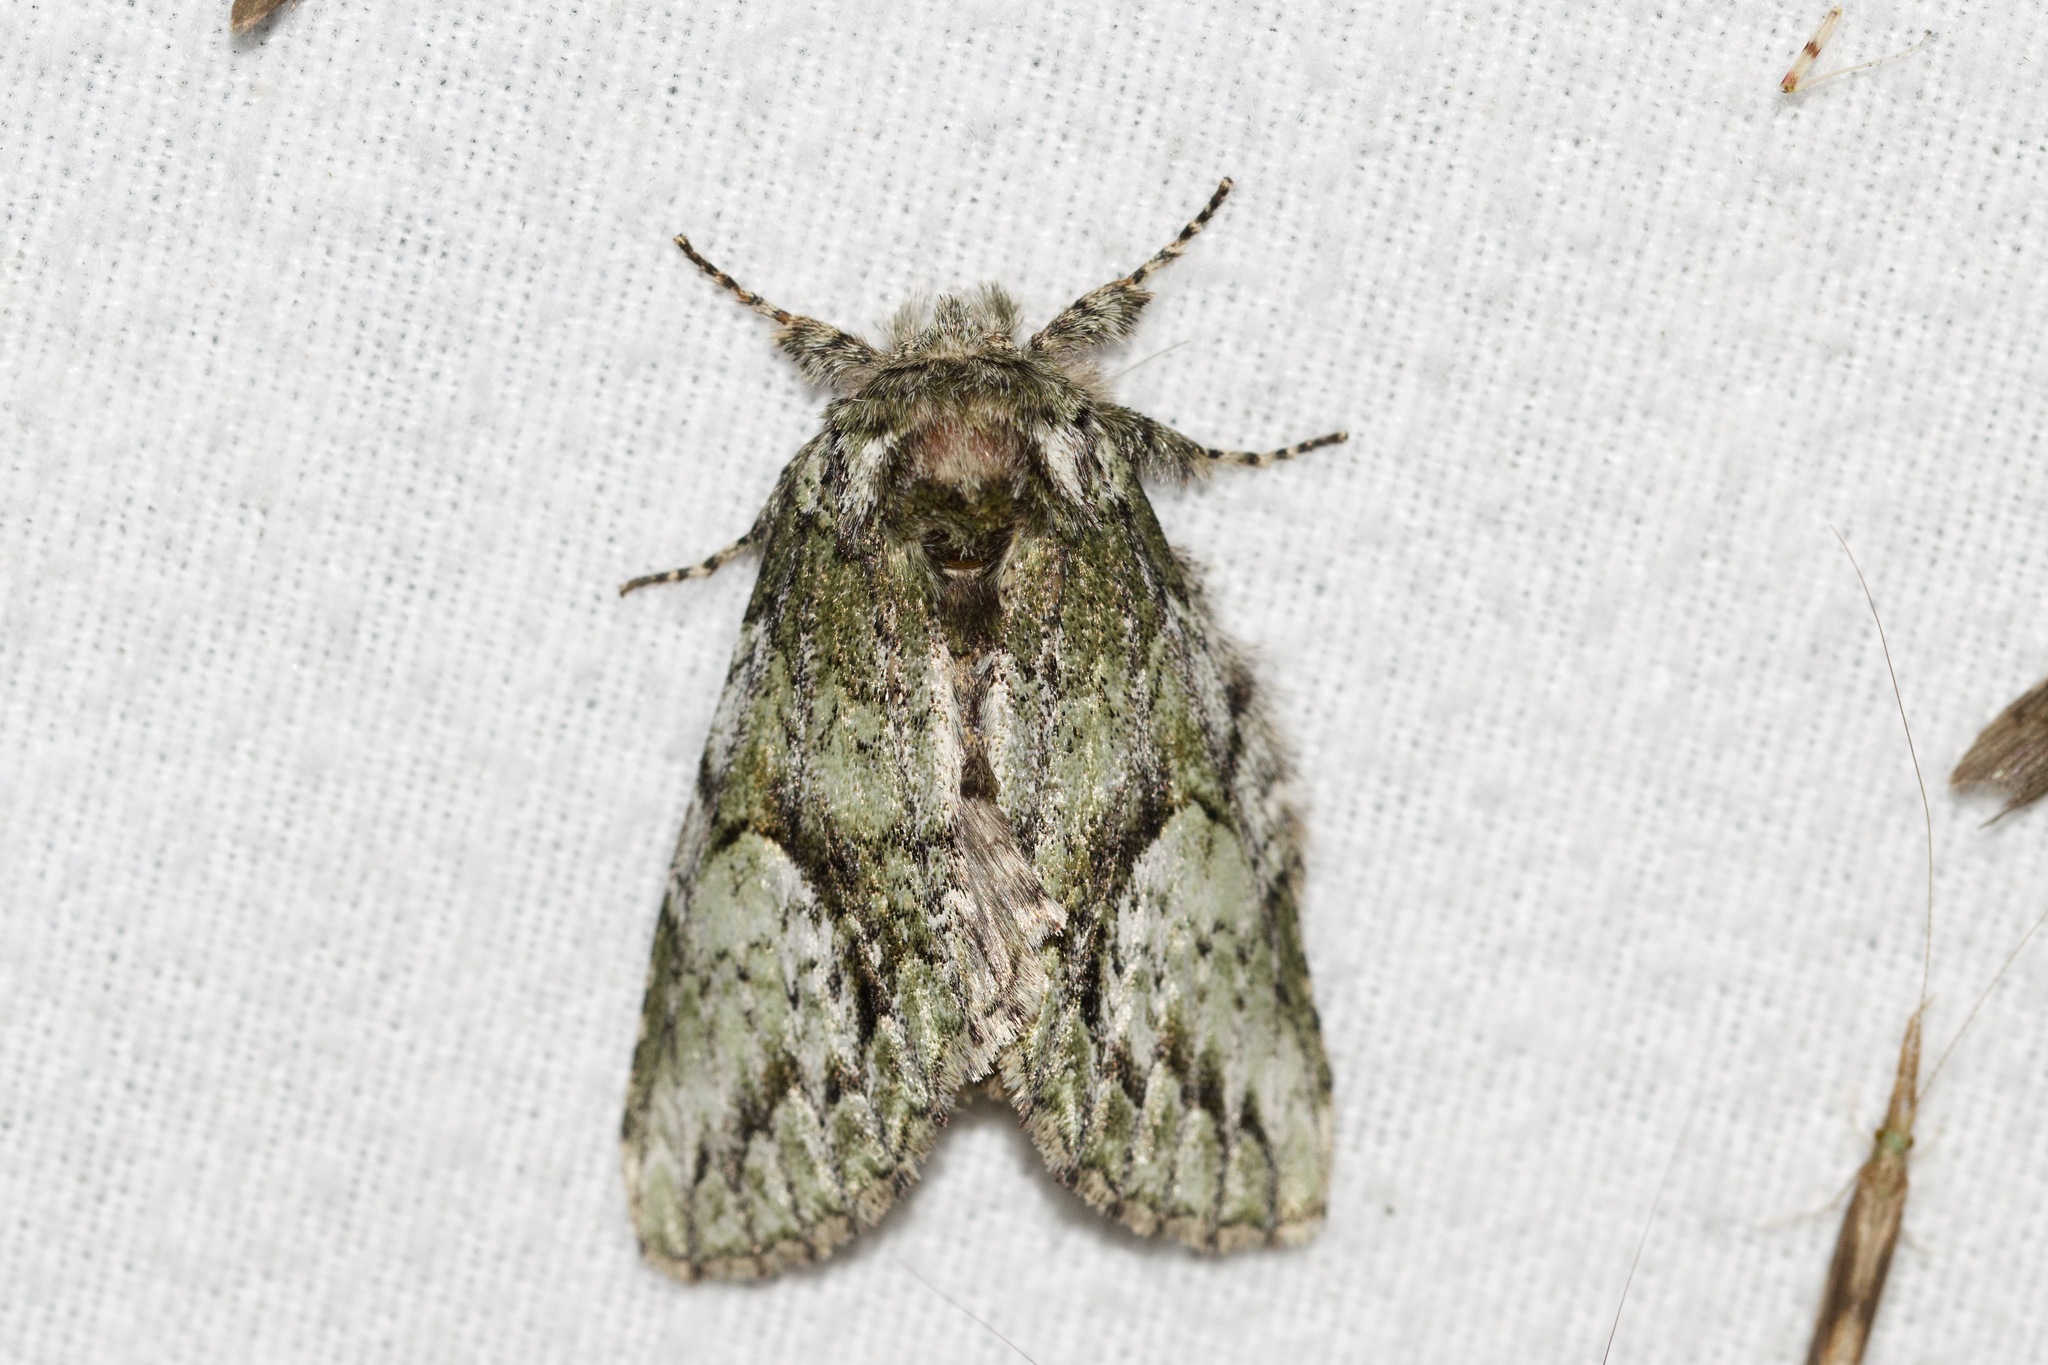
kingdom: Animalia
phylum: Arthropoda
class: Insecta
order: Lepidoptera
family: Notodontidae
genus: Heterocampa
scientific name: Heterocampa
